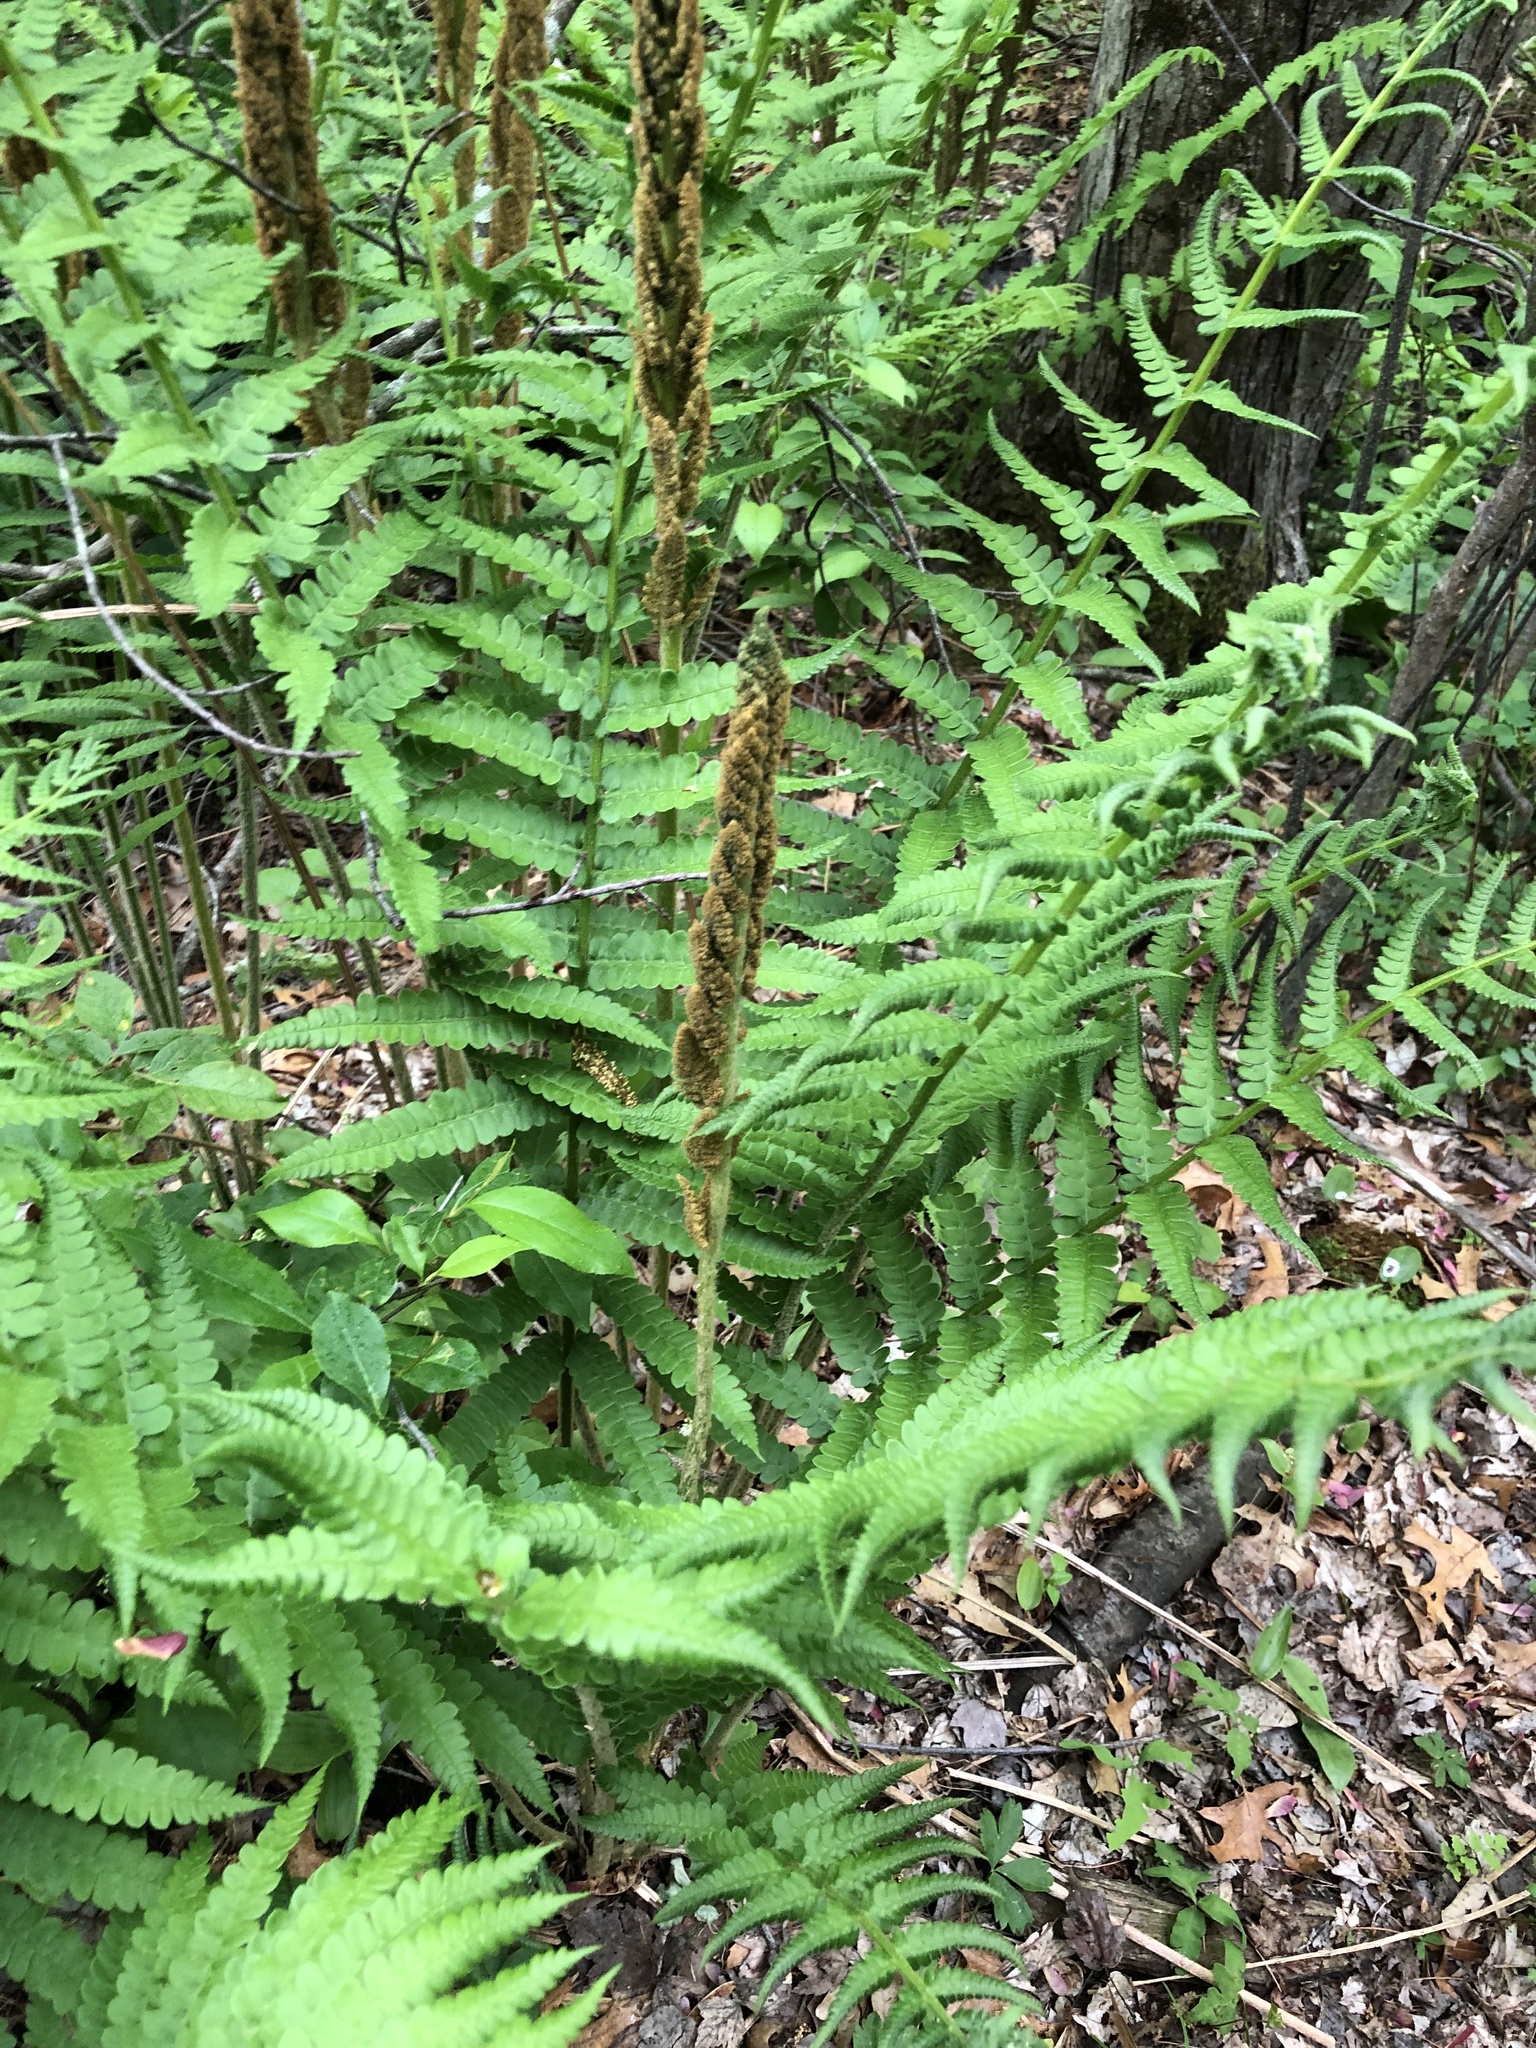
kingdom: Plantae
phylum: Tracheophyta
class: Polypodiopsida
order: Osmundales
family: Osmundaceae
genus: Osmundastrum
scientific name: Osmundastrum cinnamomeum
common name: Cinnamon fern
